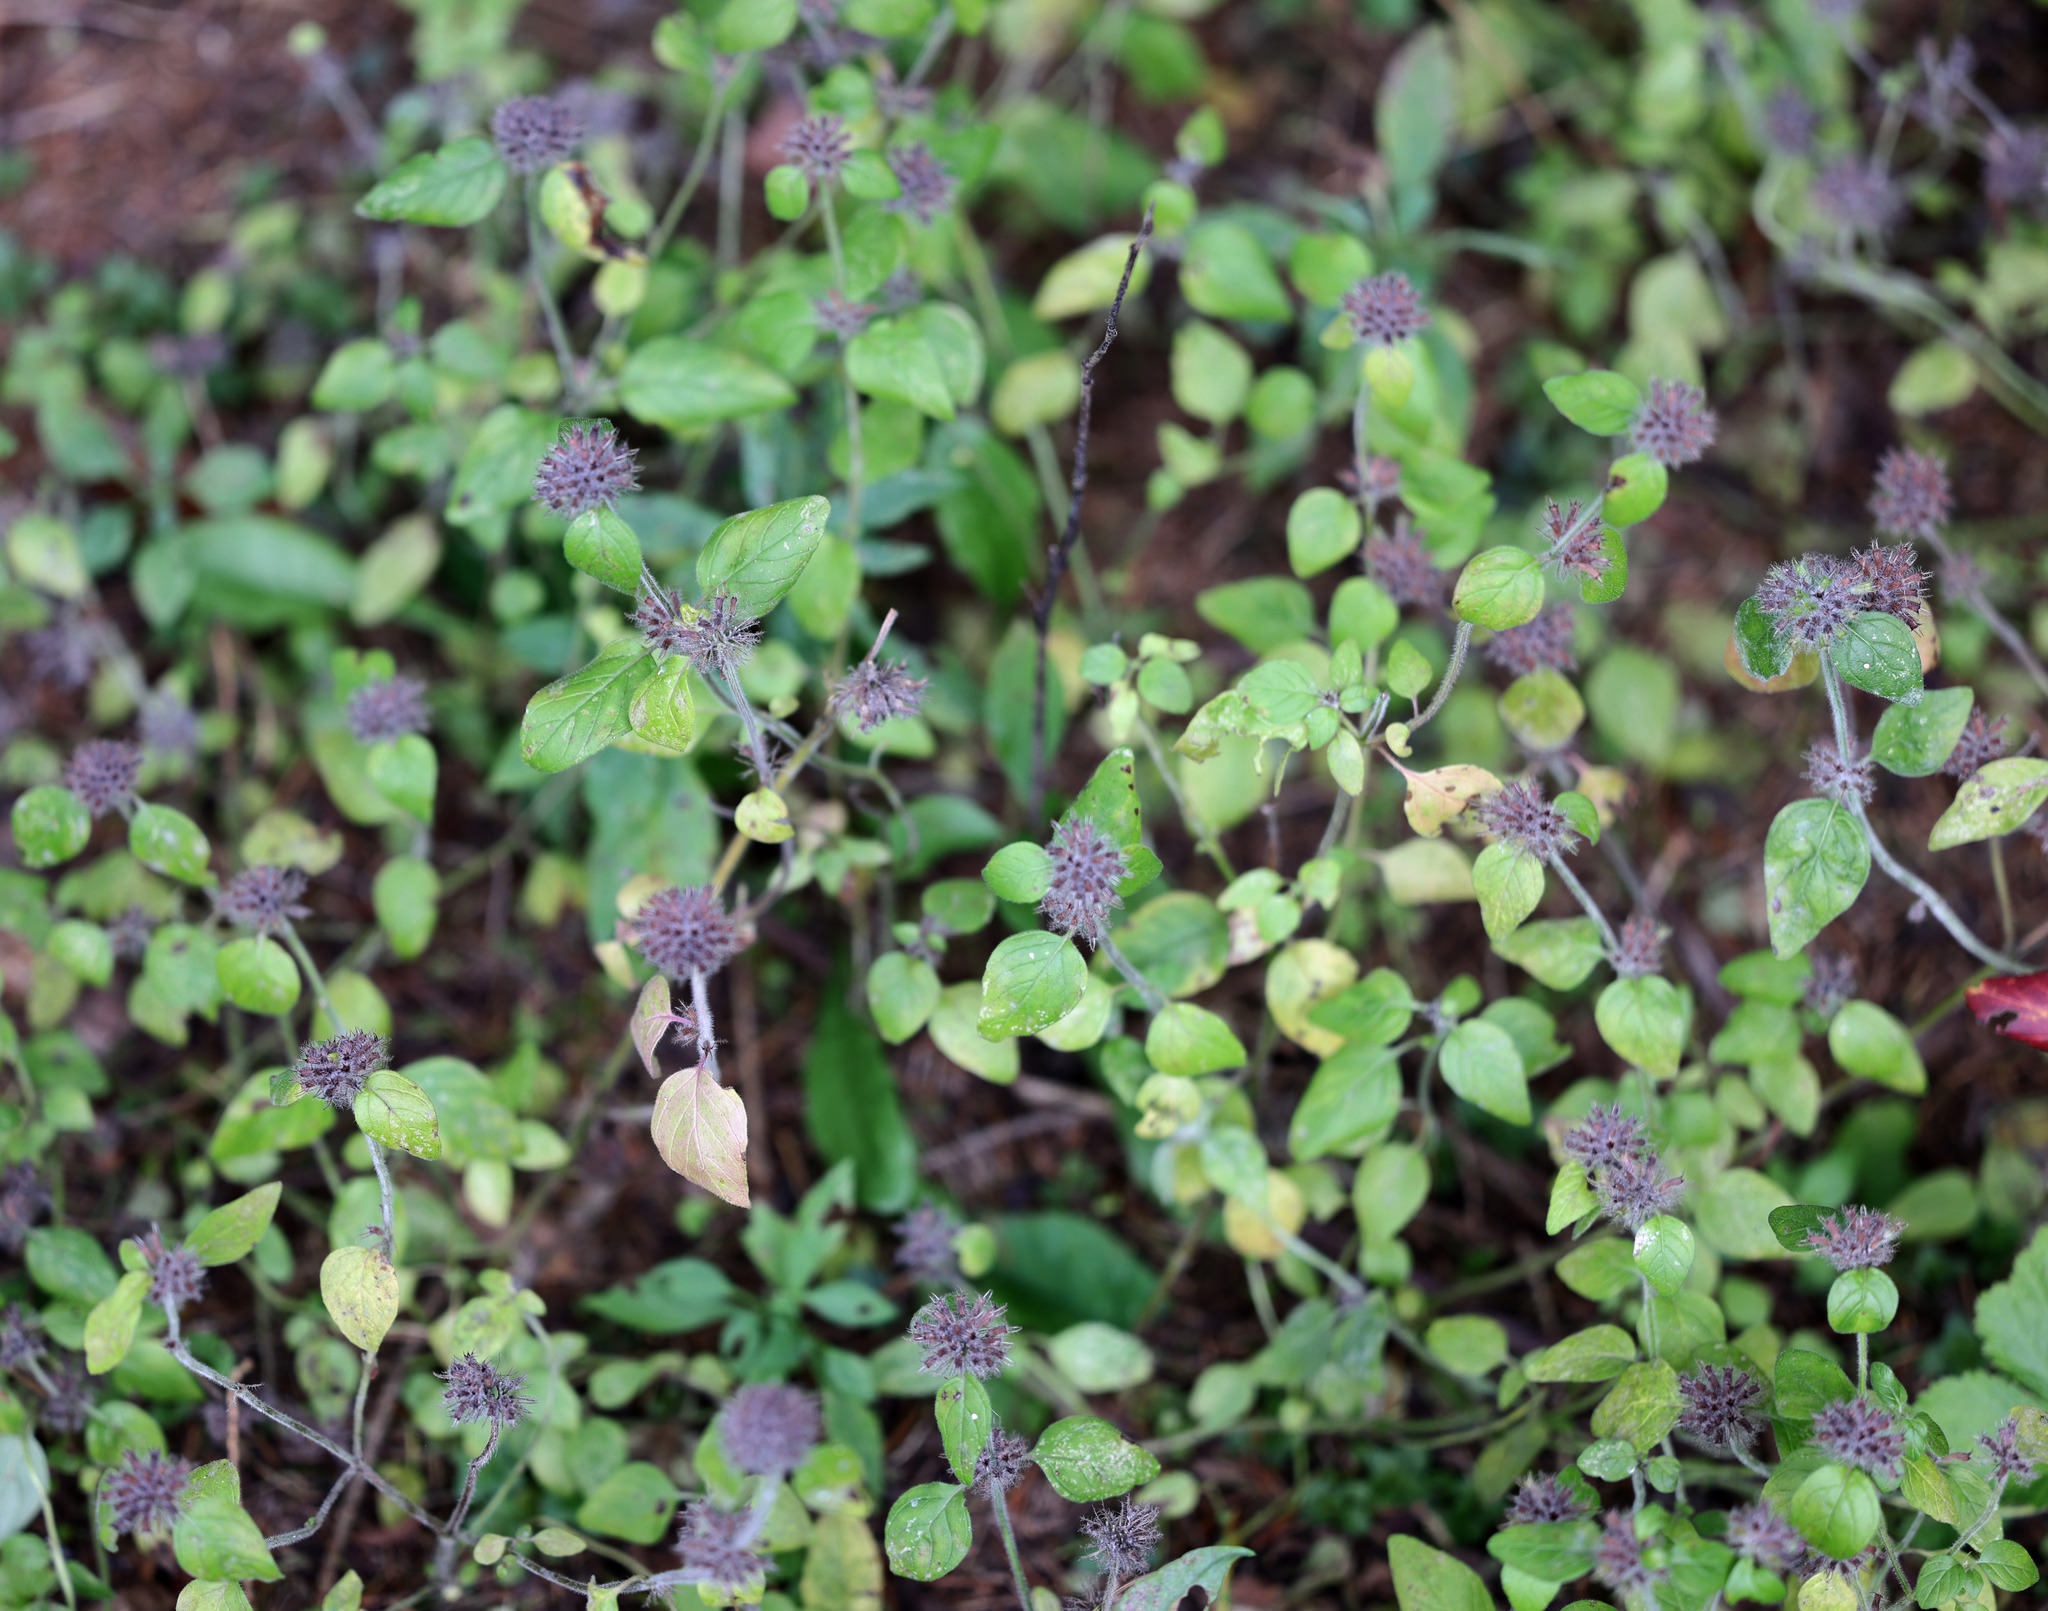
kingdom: Plantae
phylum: Tracheophyta
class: Magnoliopsida
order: Lamiales
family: Lamiaceae
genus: Clinopodium
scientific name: Clinopodium vulgare
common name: Wild basil
